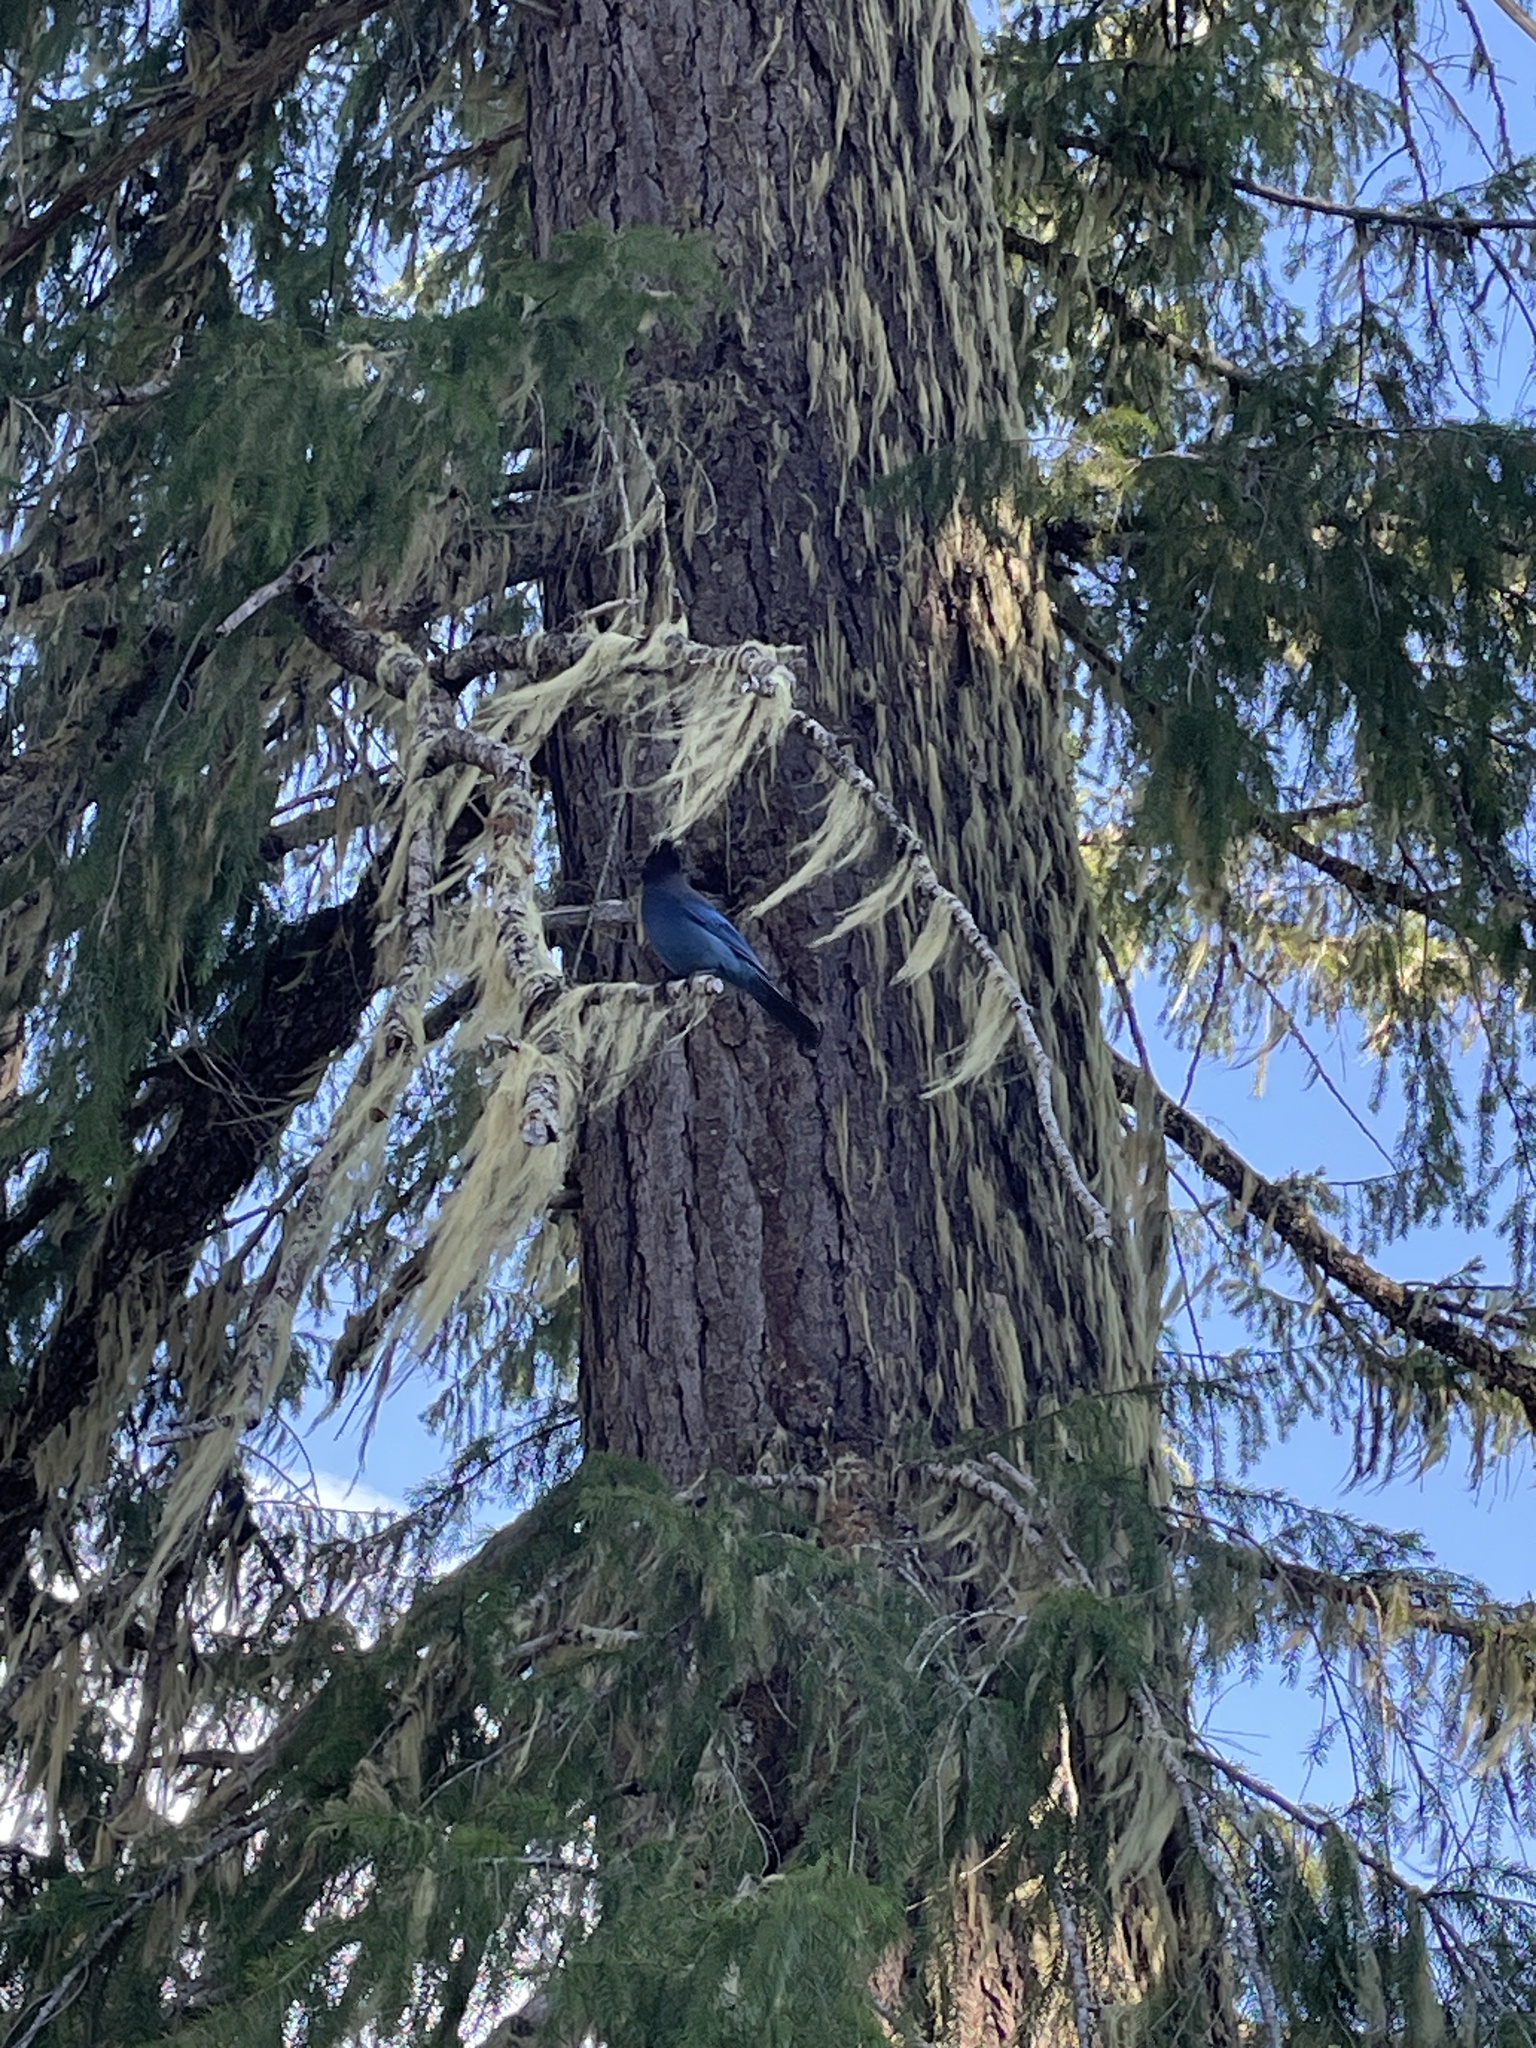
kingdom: Animalia
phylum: Chordata
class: Aves
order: Passeriformes
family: Corvidae
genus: Cyanocitta
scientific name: Cyanocitta stelleri
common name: Steller's jay
